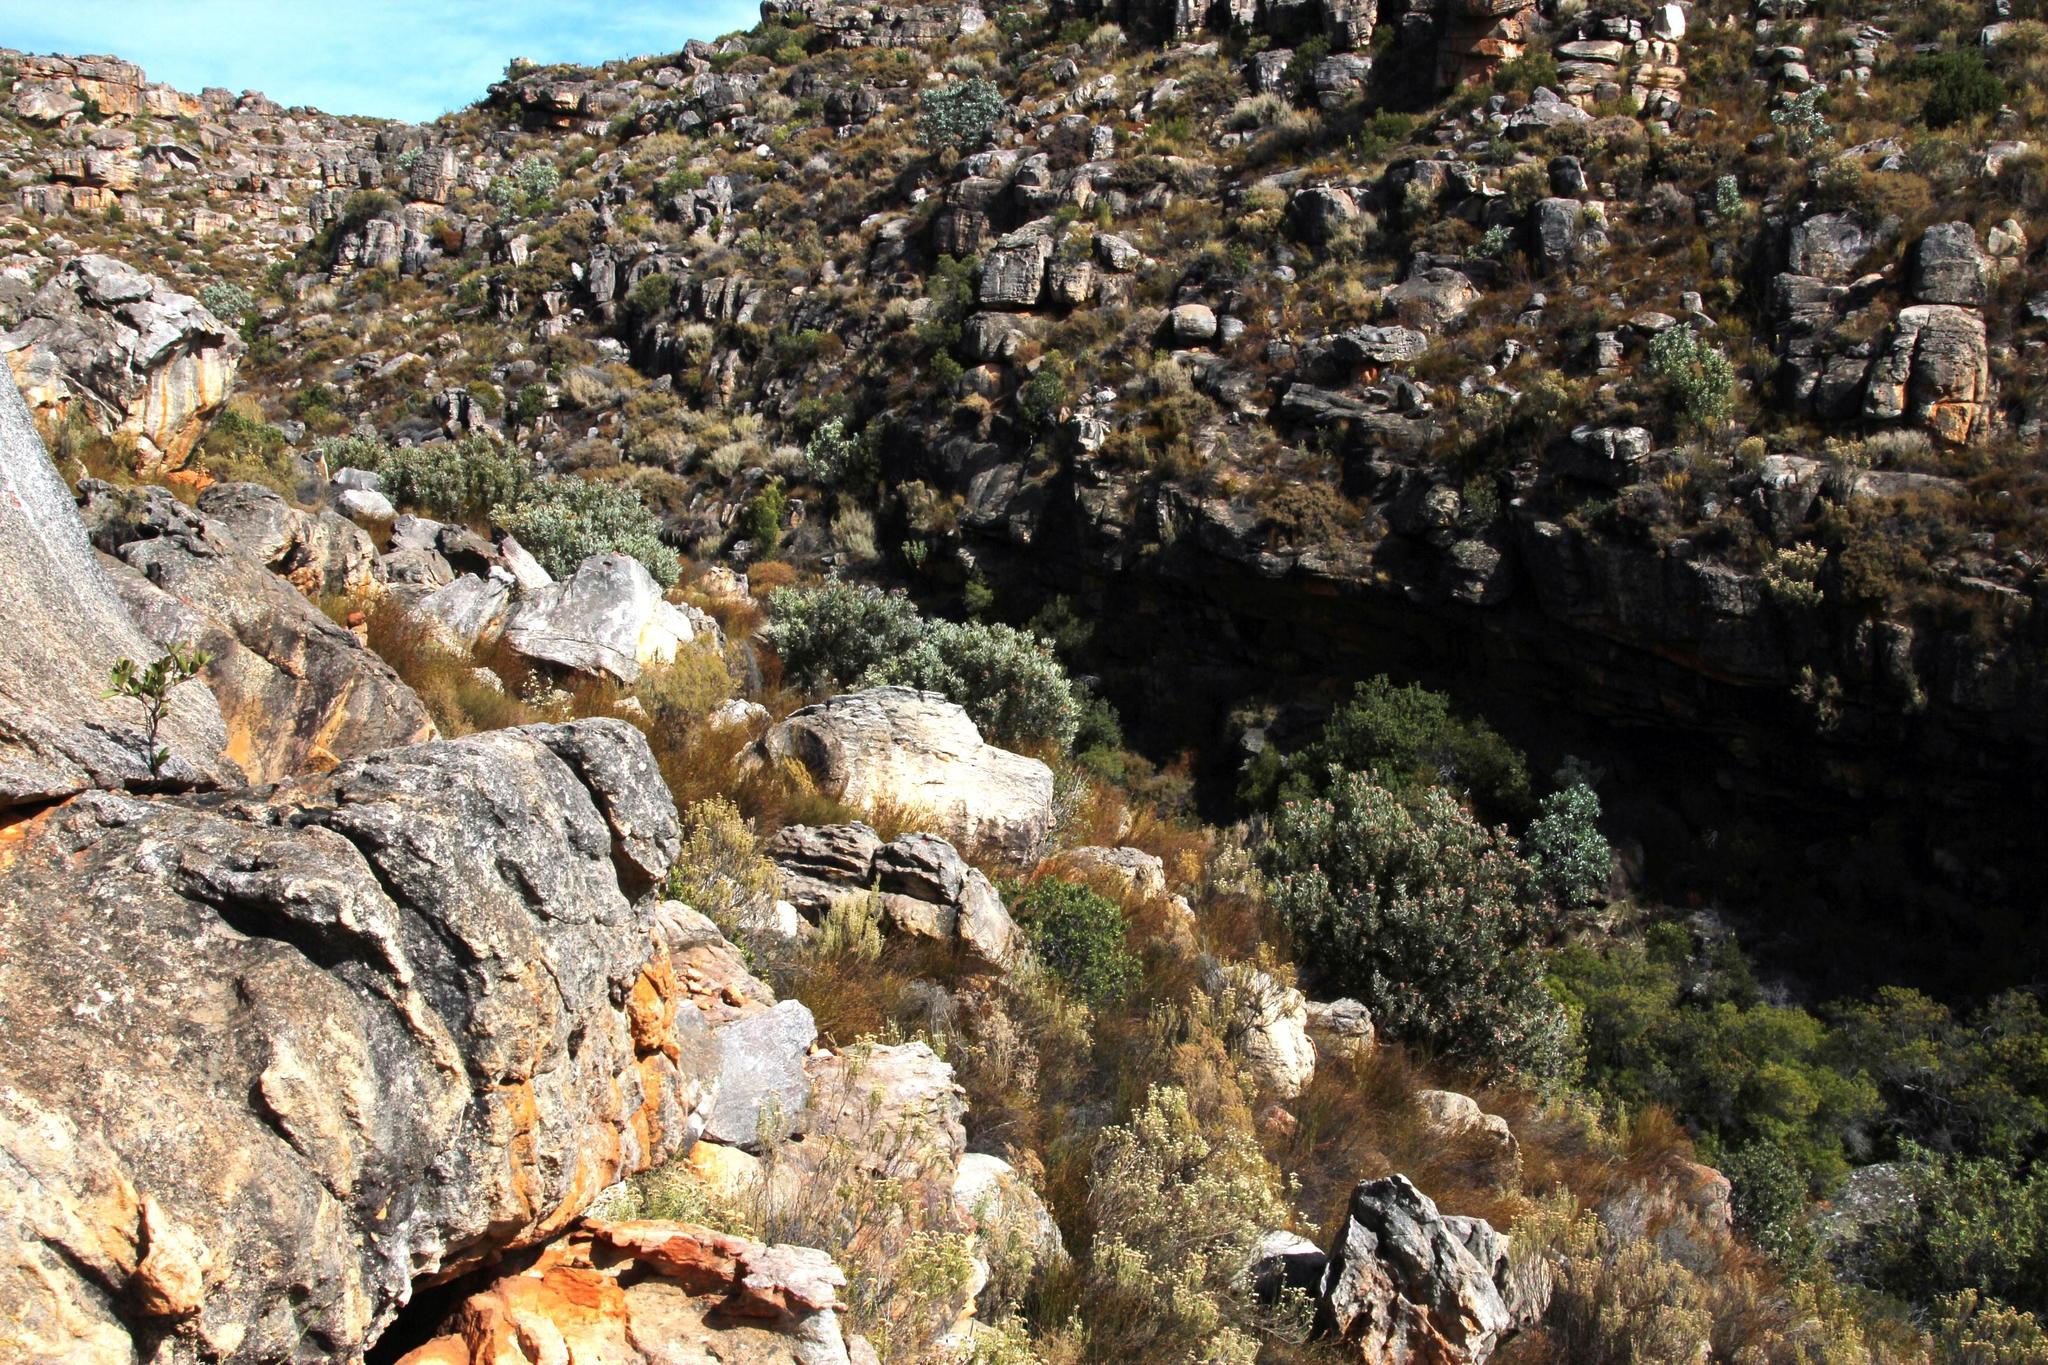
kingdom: Plantae
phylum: Tracheophyta
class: Magnoliopsida
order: Proteales
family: Proteaceae
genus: Protea
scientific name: Protea laurifolia
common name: Grey-leaf sugarbsh
